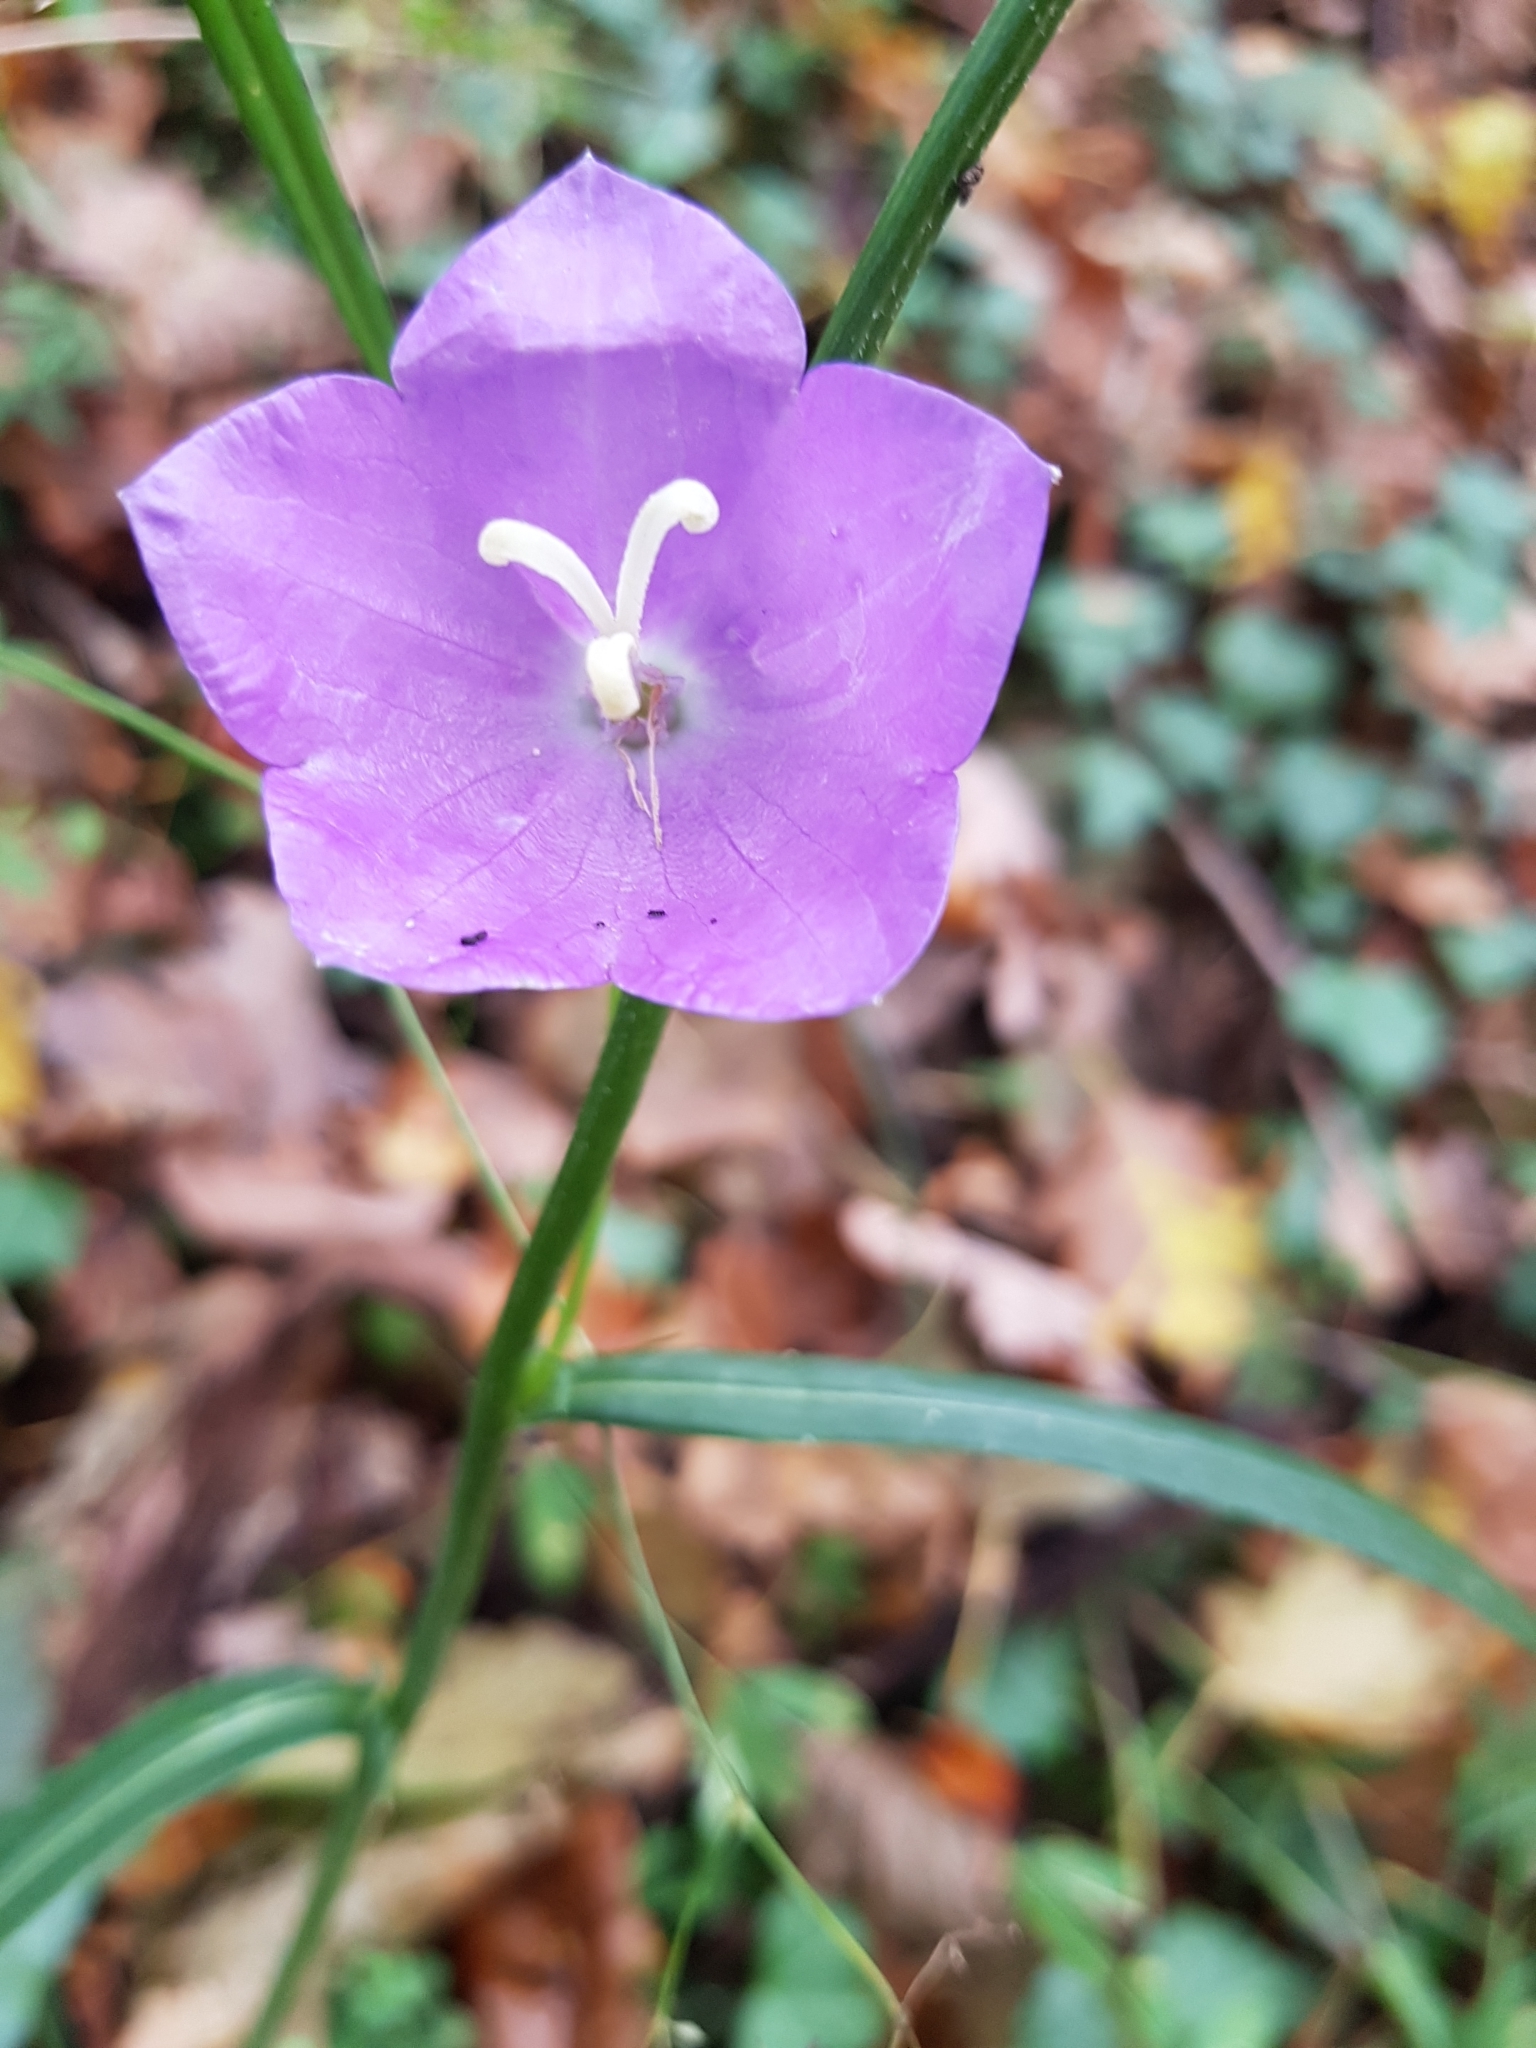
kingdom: Plantae
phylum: Tracheophyta
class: Magnoliopsida
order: Asterales
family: Campanulaceae
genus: Campanula
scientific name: Campanula persicifolia
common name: Peach-leaved bellflower
